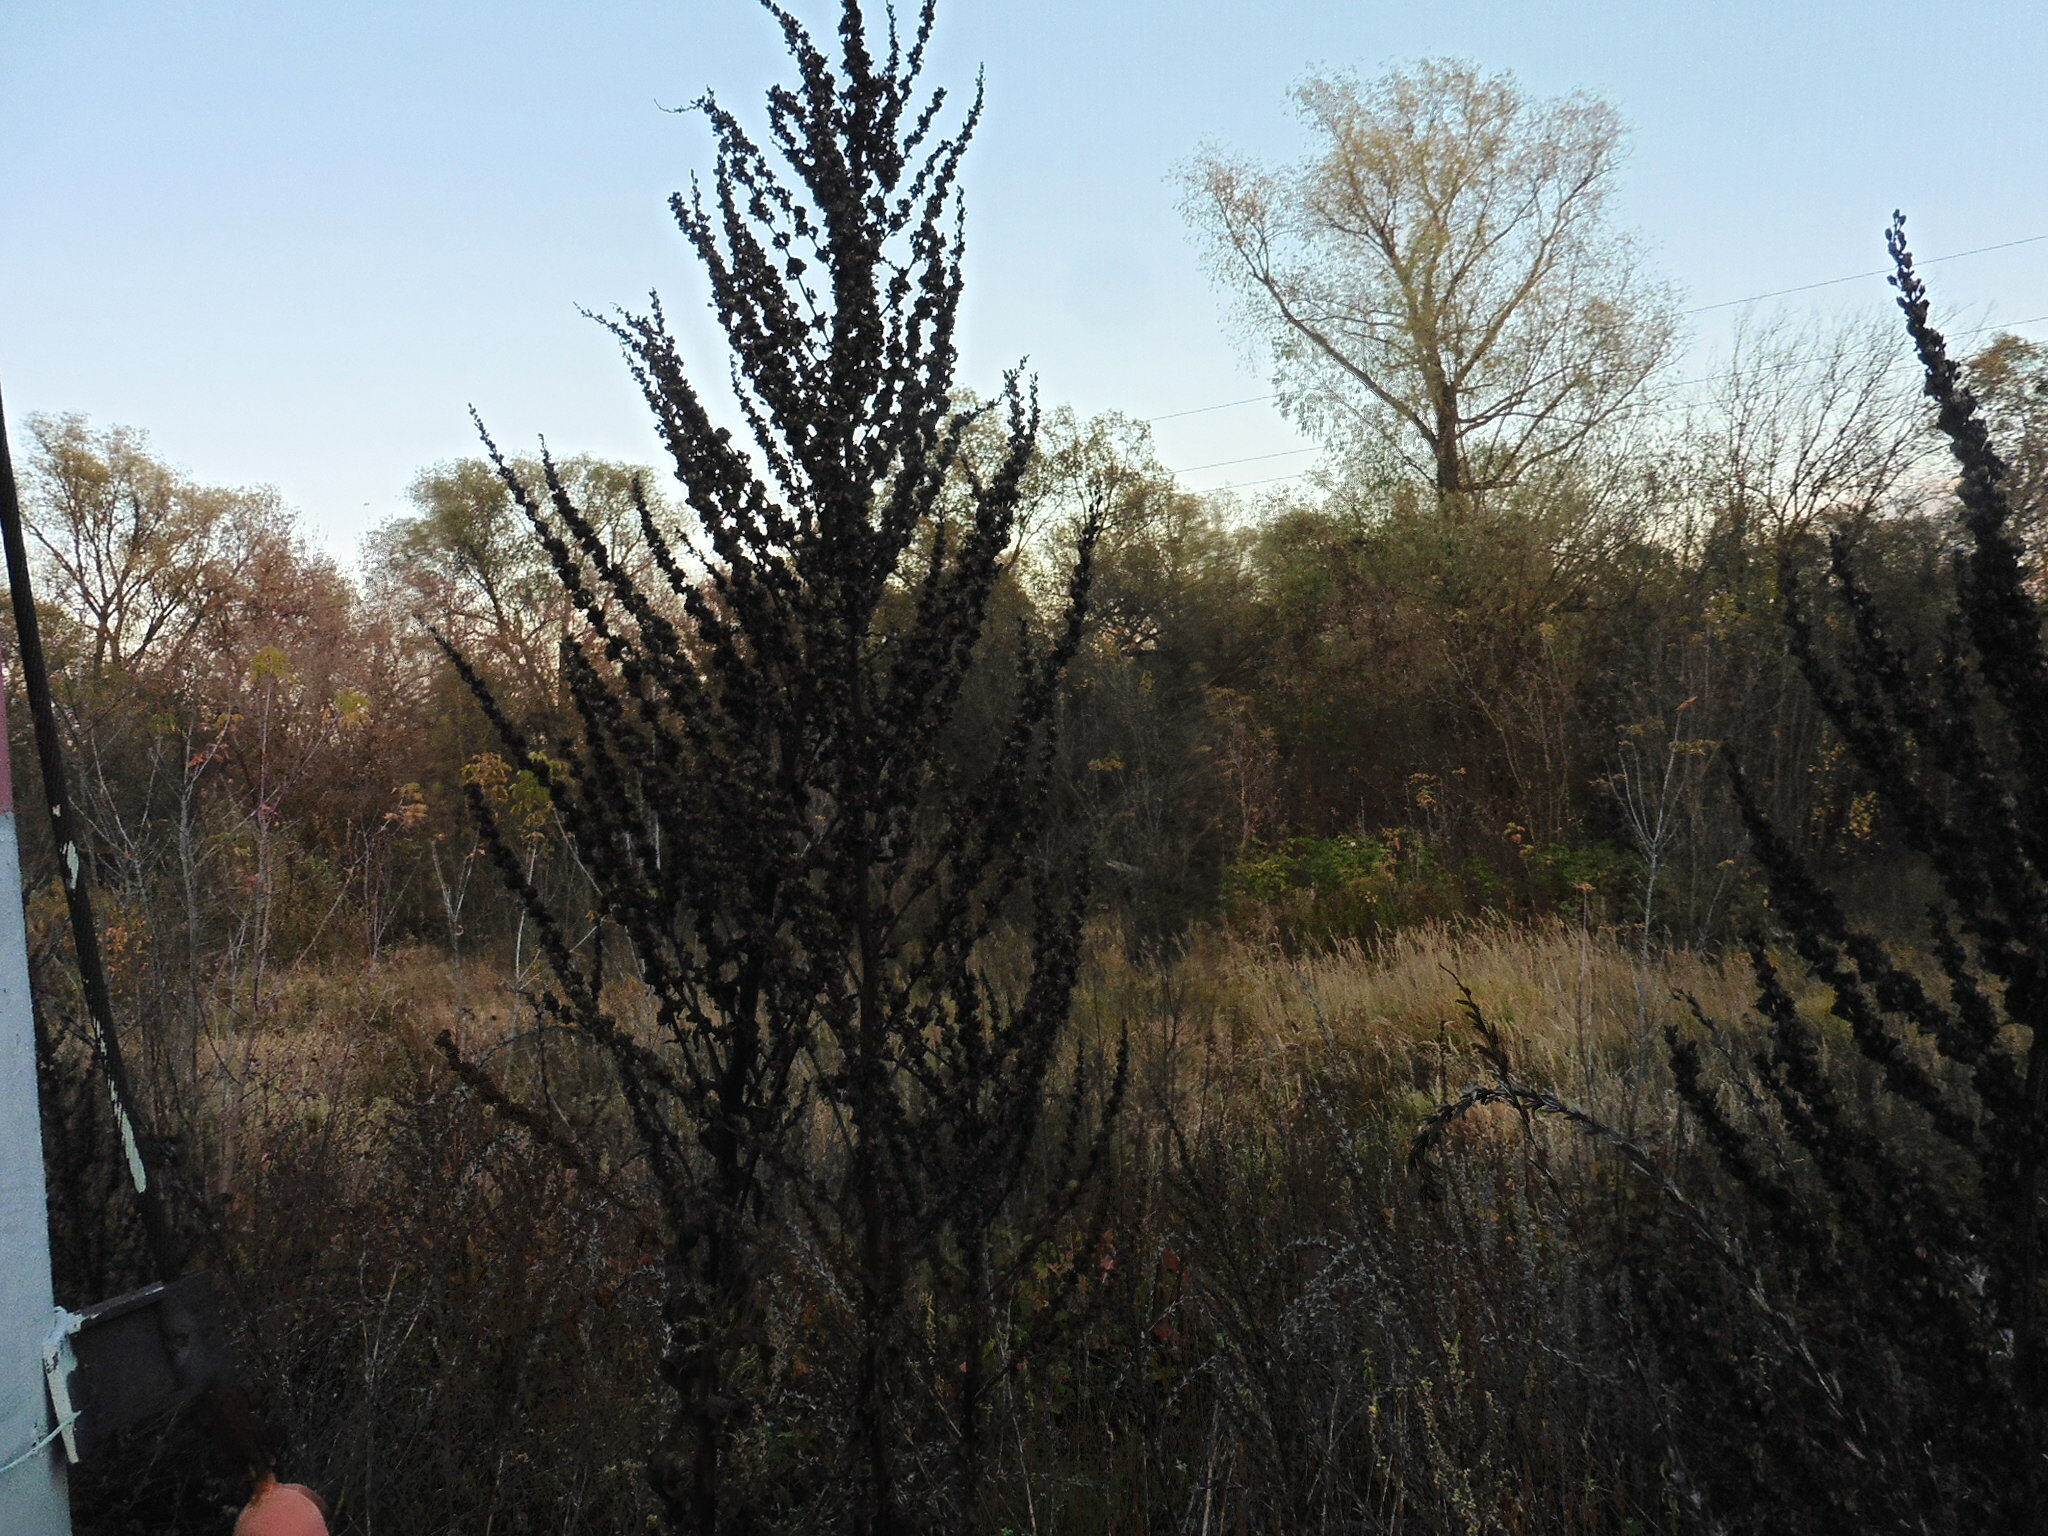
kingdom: Plantae
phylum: Tracheophyta
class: Magnoliopsida
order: Lamiales
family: Scrophulariaceae
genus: Verbascum
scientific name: Verbascum lychnitis
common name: White mullein
